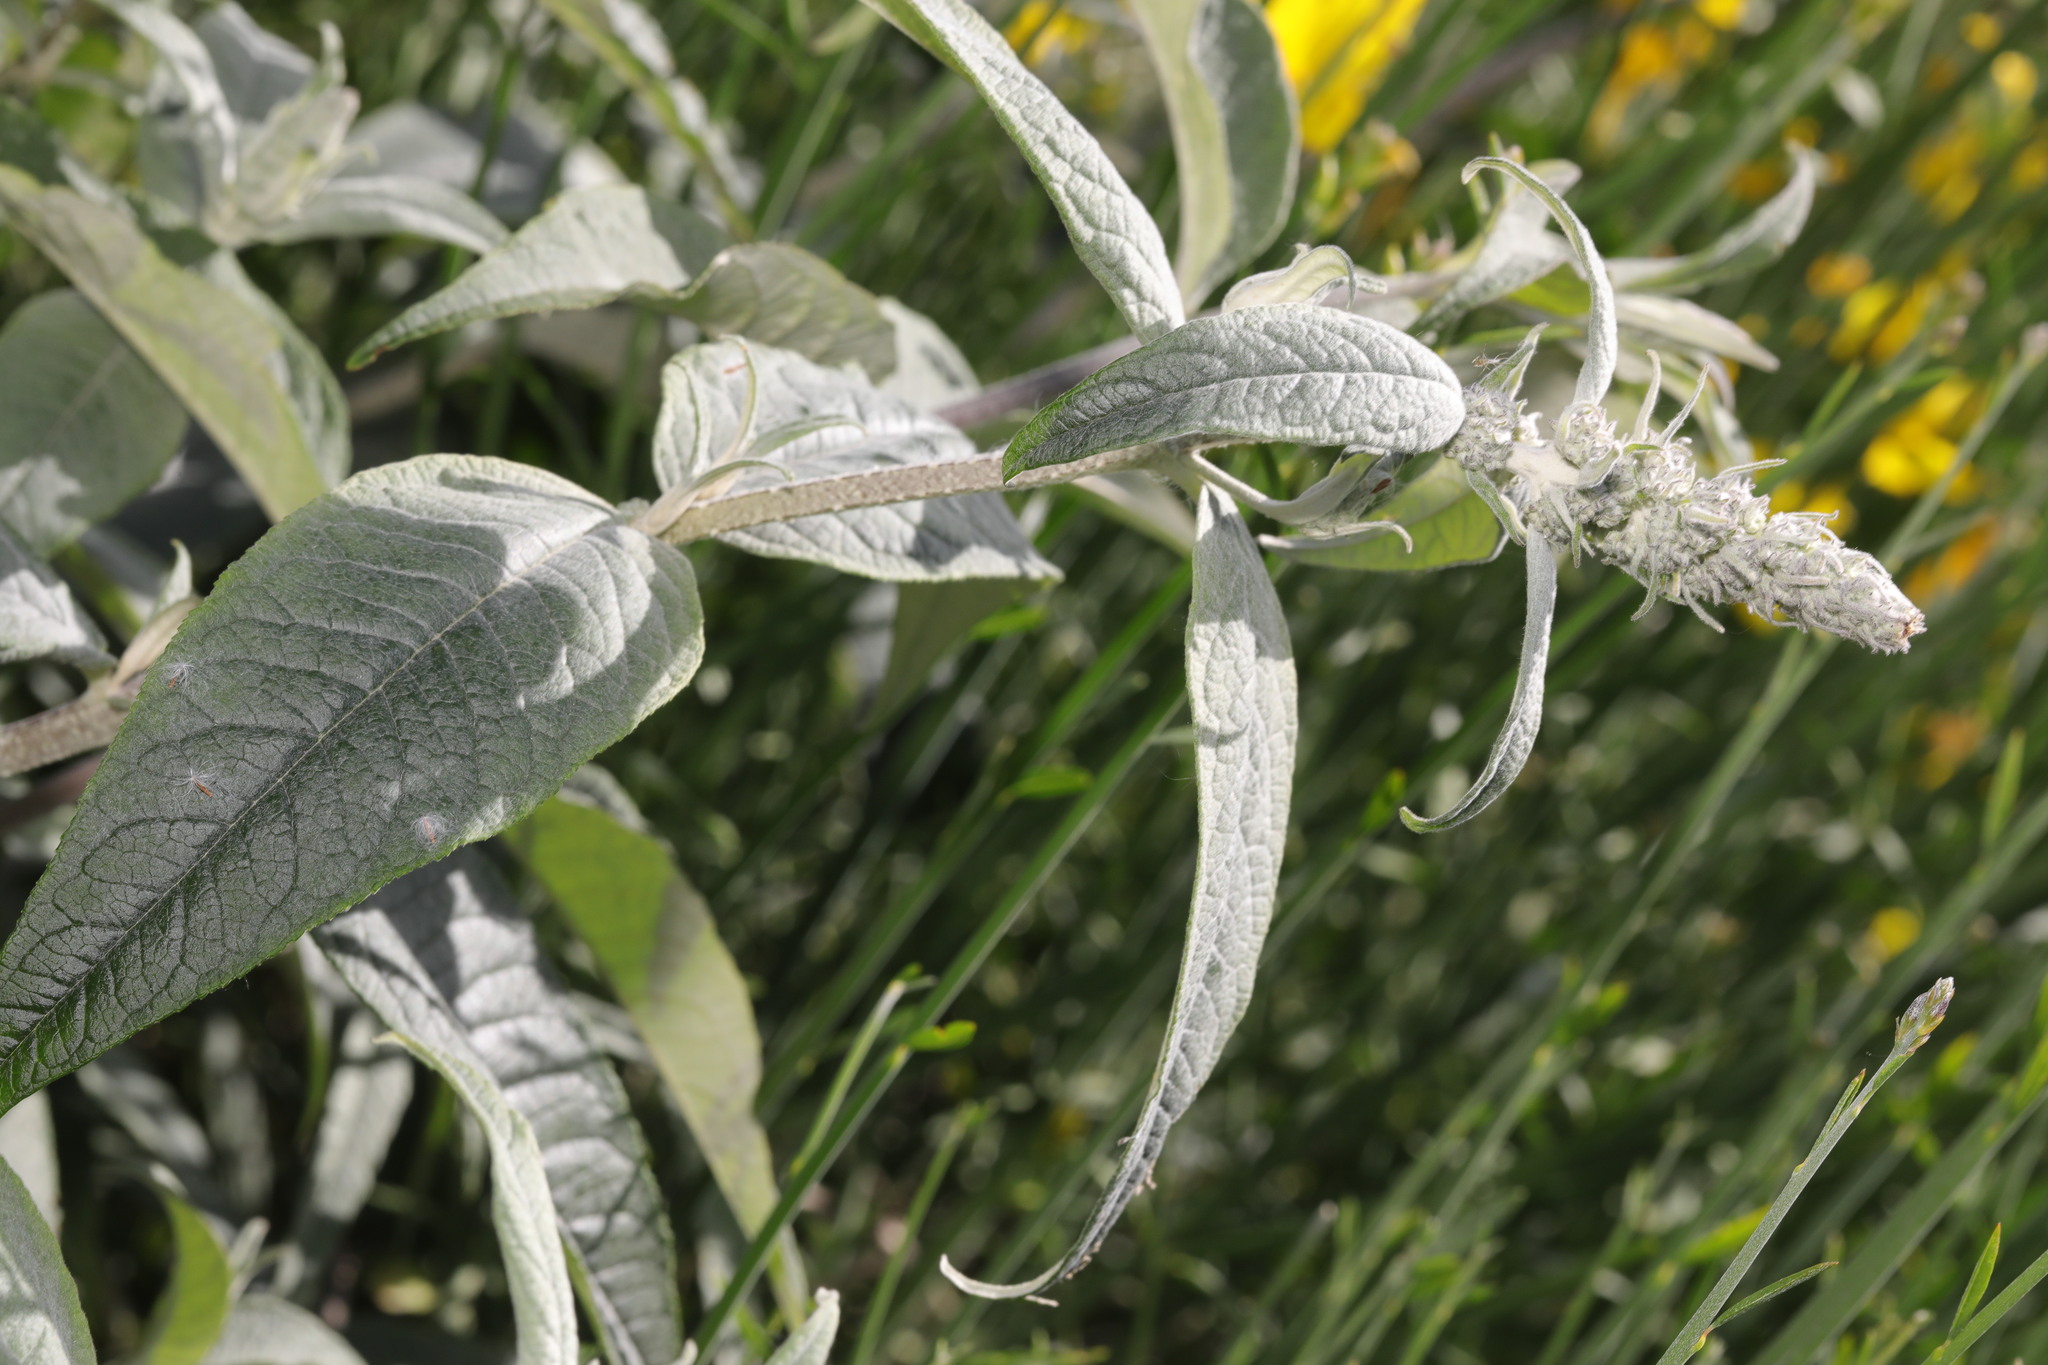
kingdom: Plantae
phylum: Tracheophyta
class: Magnoliopsida
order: Lamiales
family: Scrophulariaceae
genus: Buddleja
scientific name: Buddleja davidii
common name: Butterfly-bush
